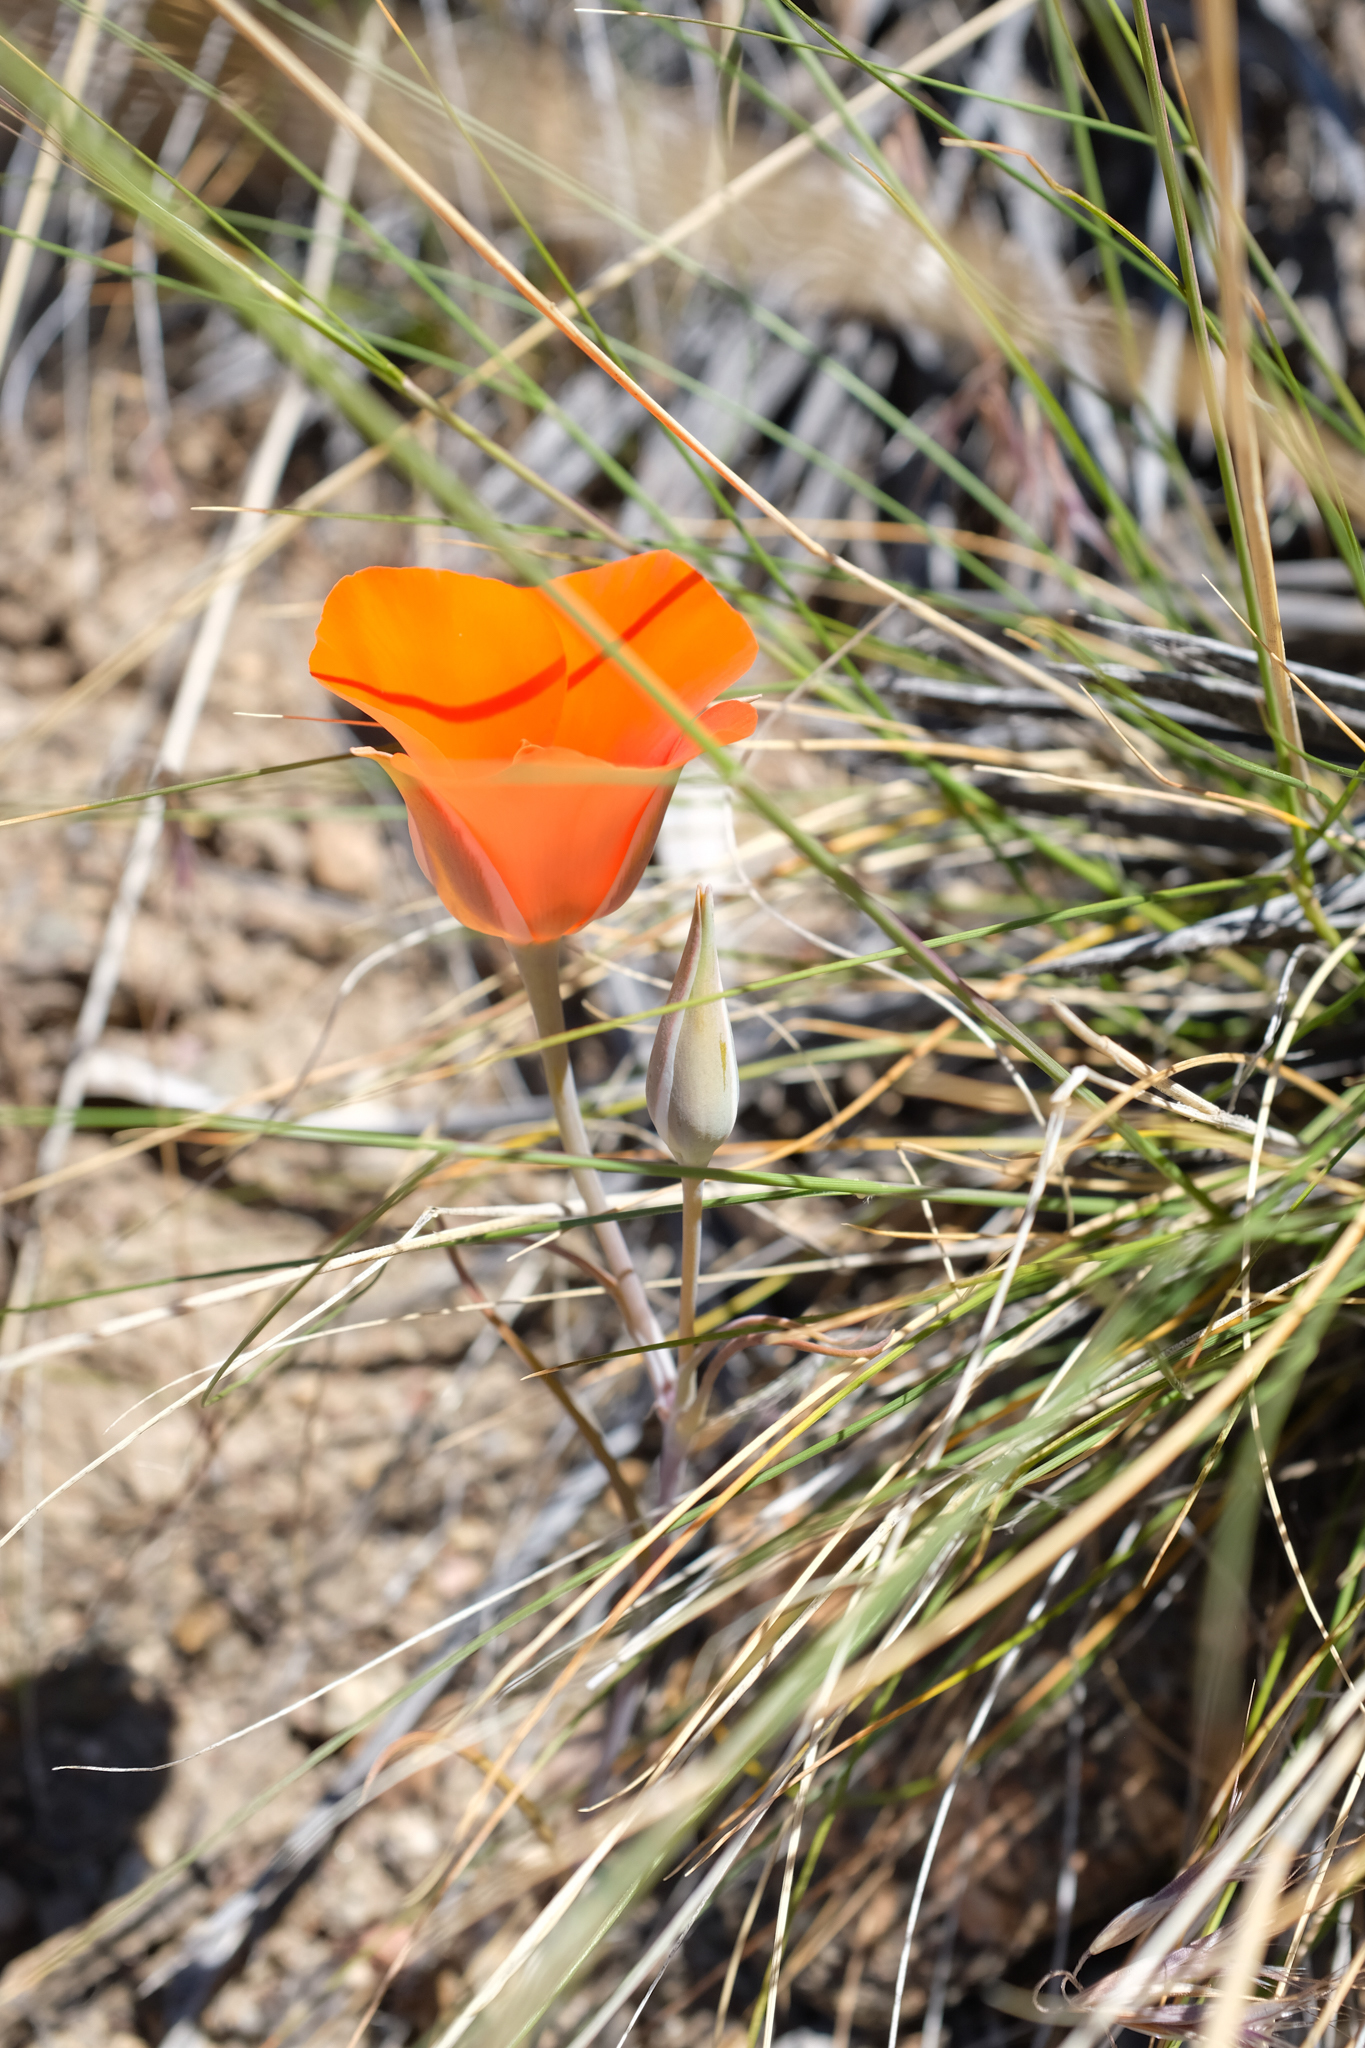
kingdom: Plantae
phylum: Tracheophyta
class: Liliopsida
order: Liliales
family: Liliaceae
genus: Calochortus
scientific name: Calochortus kennedyi
